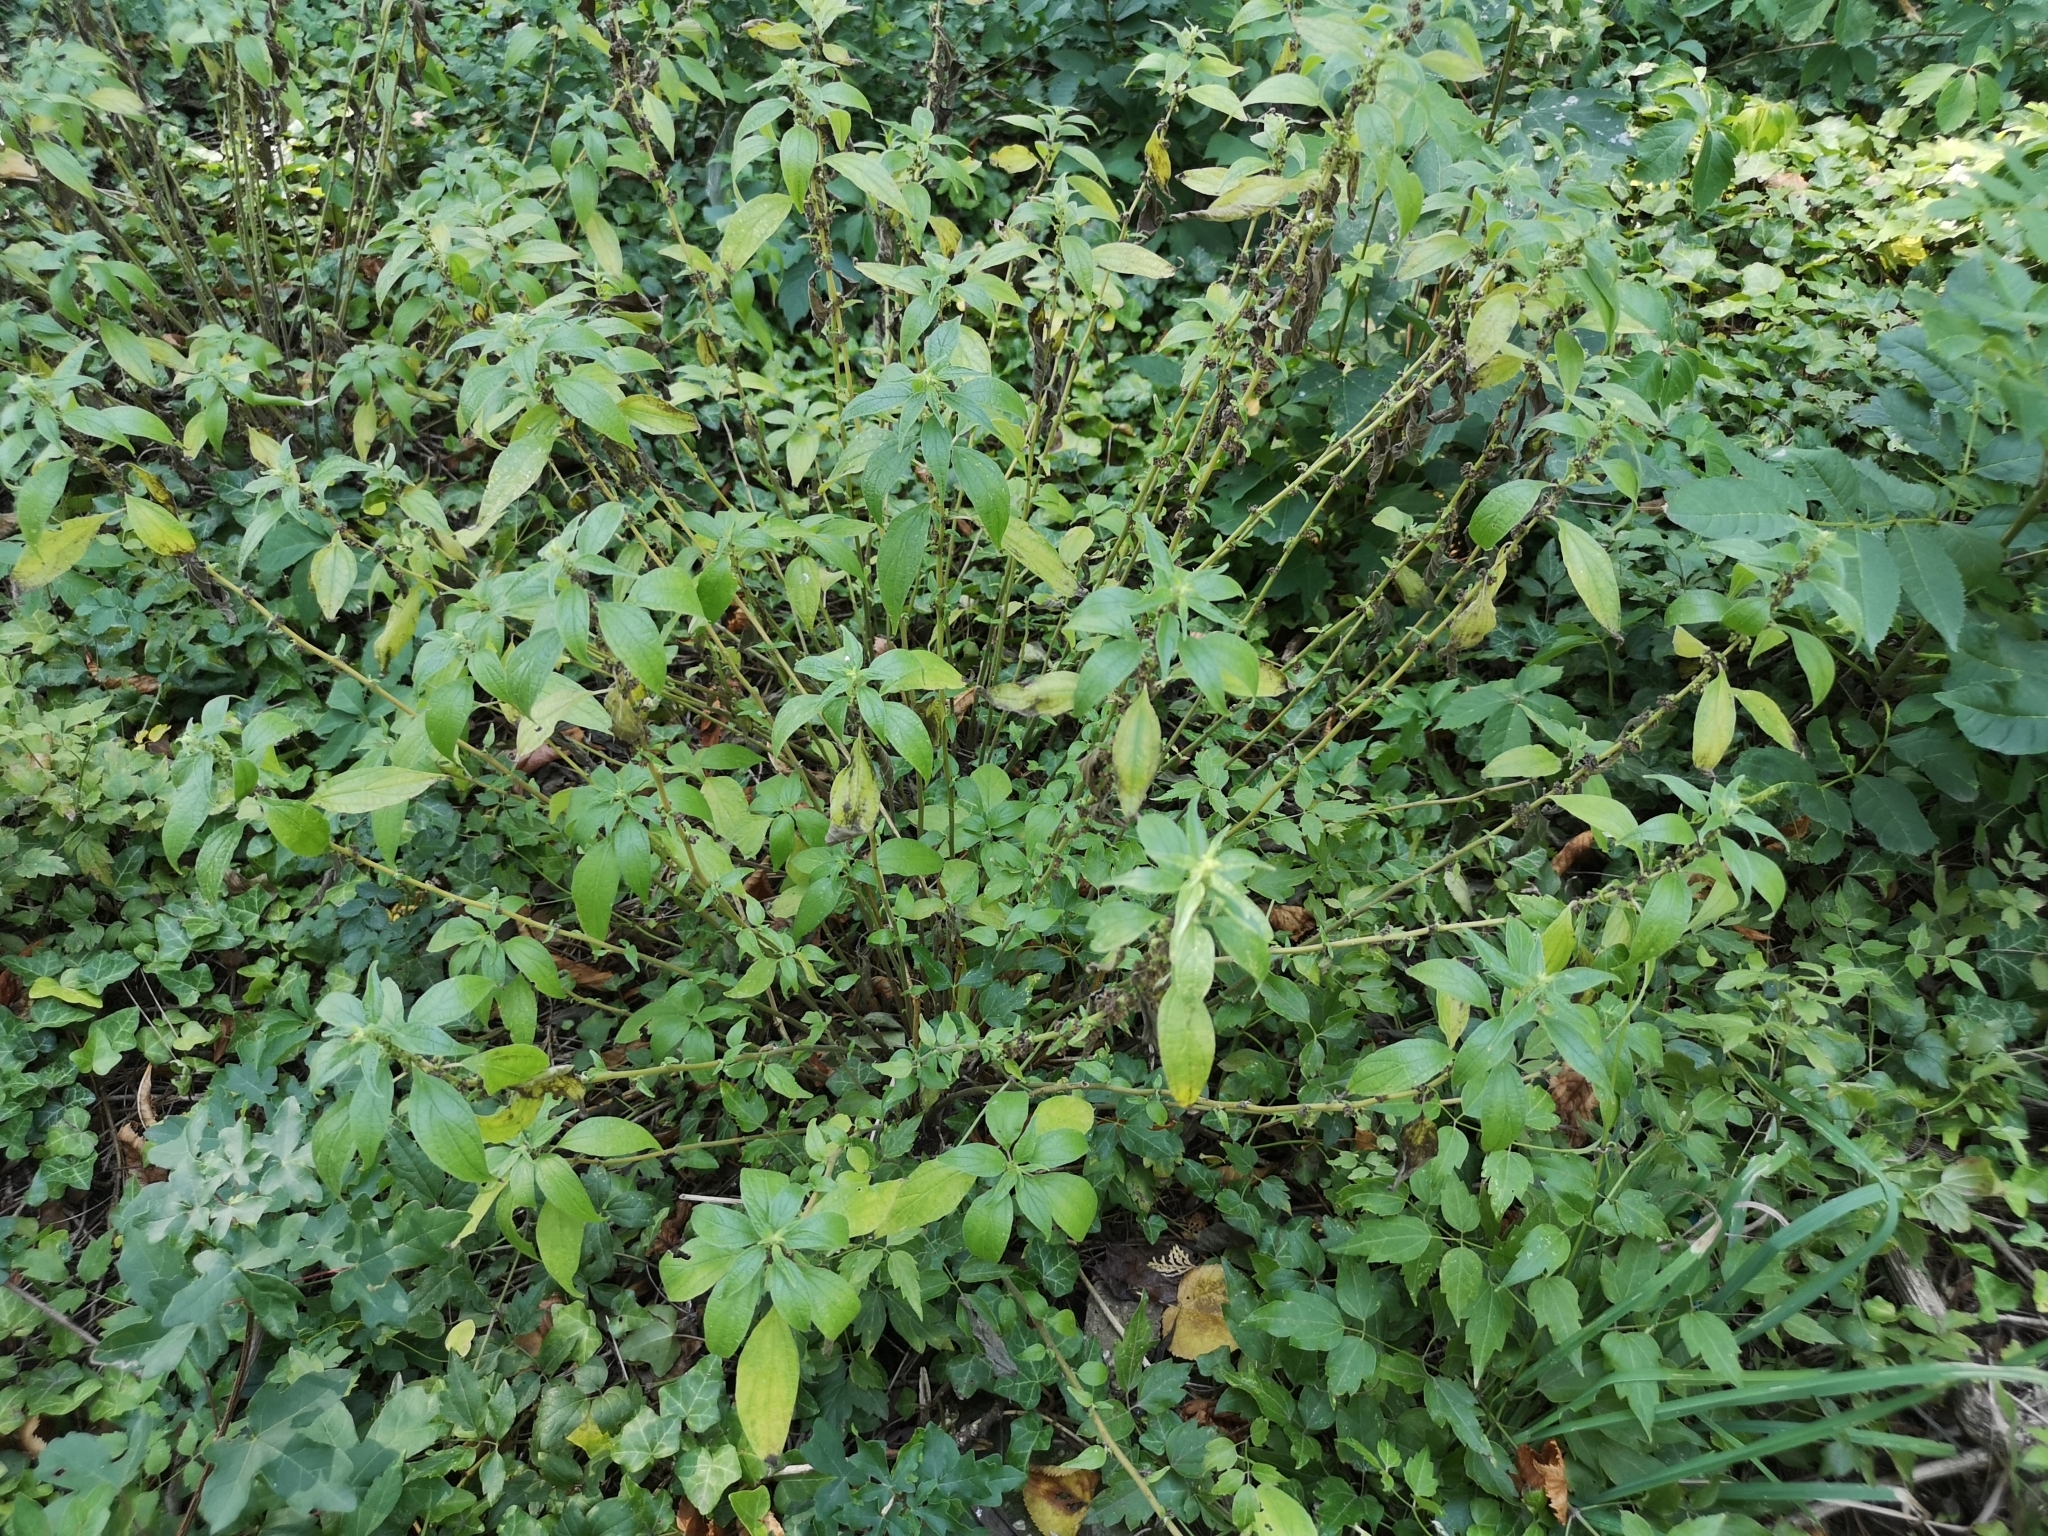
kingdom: Plantae
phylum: Tracheophyta
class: Magnoliopsida
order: Rosales
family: Urticaceae
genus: Parietaria
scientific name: Parietaria officinalis
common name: Eastern pellitory-of-the-wall
